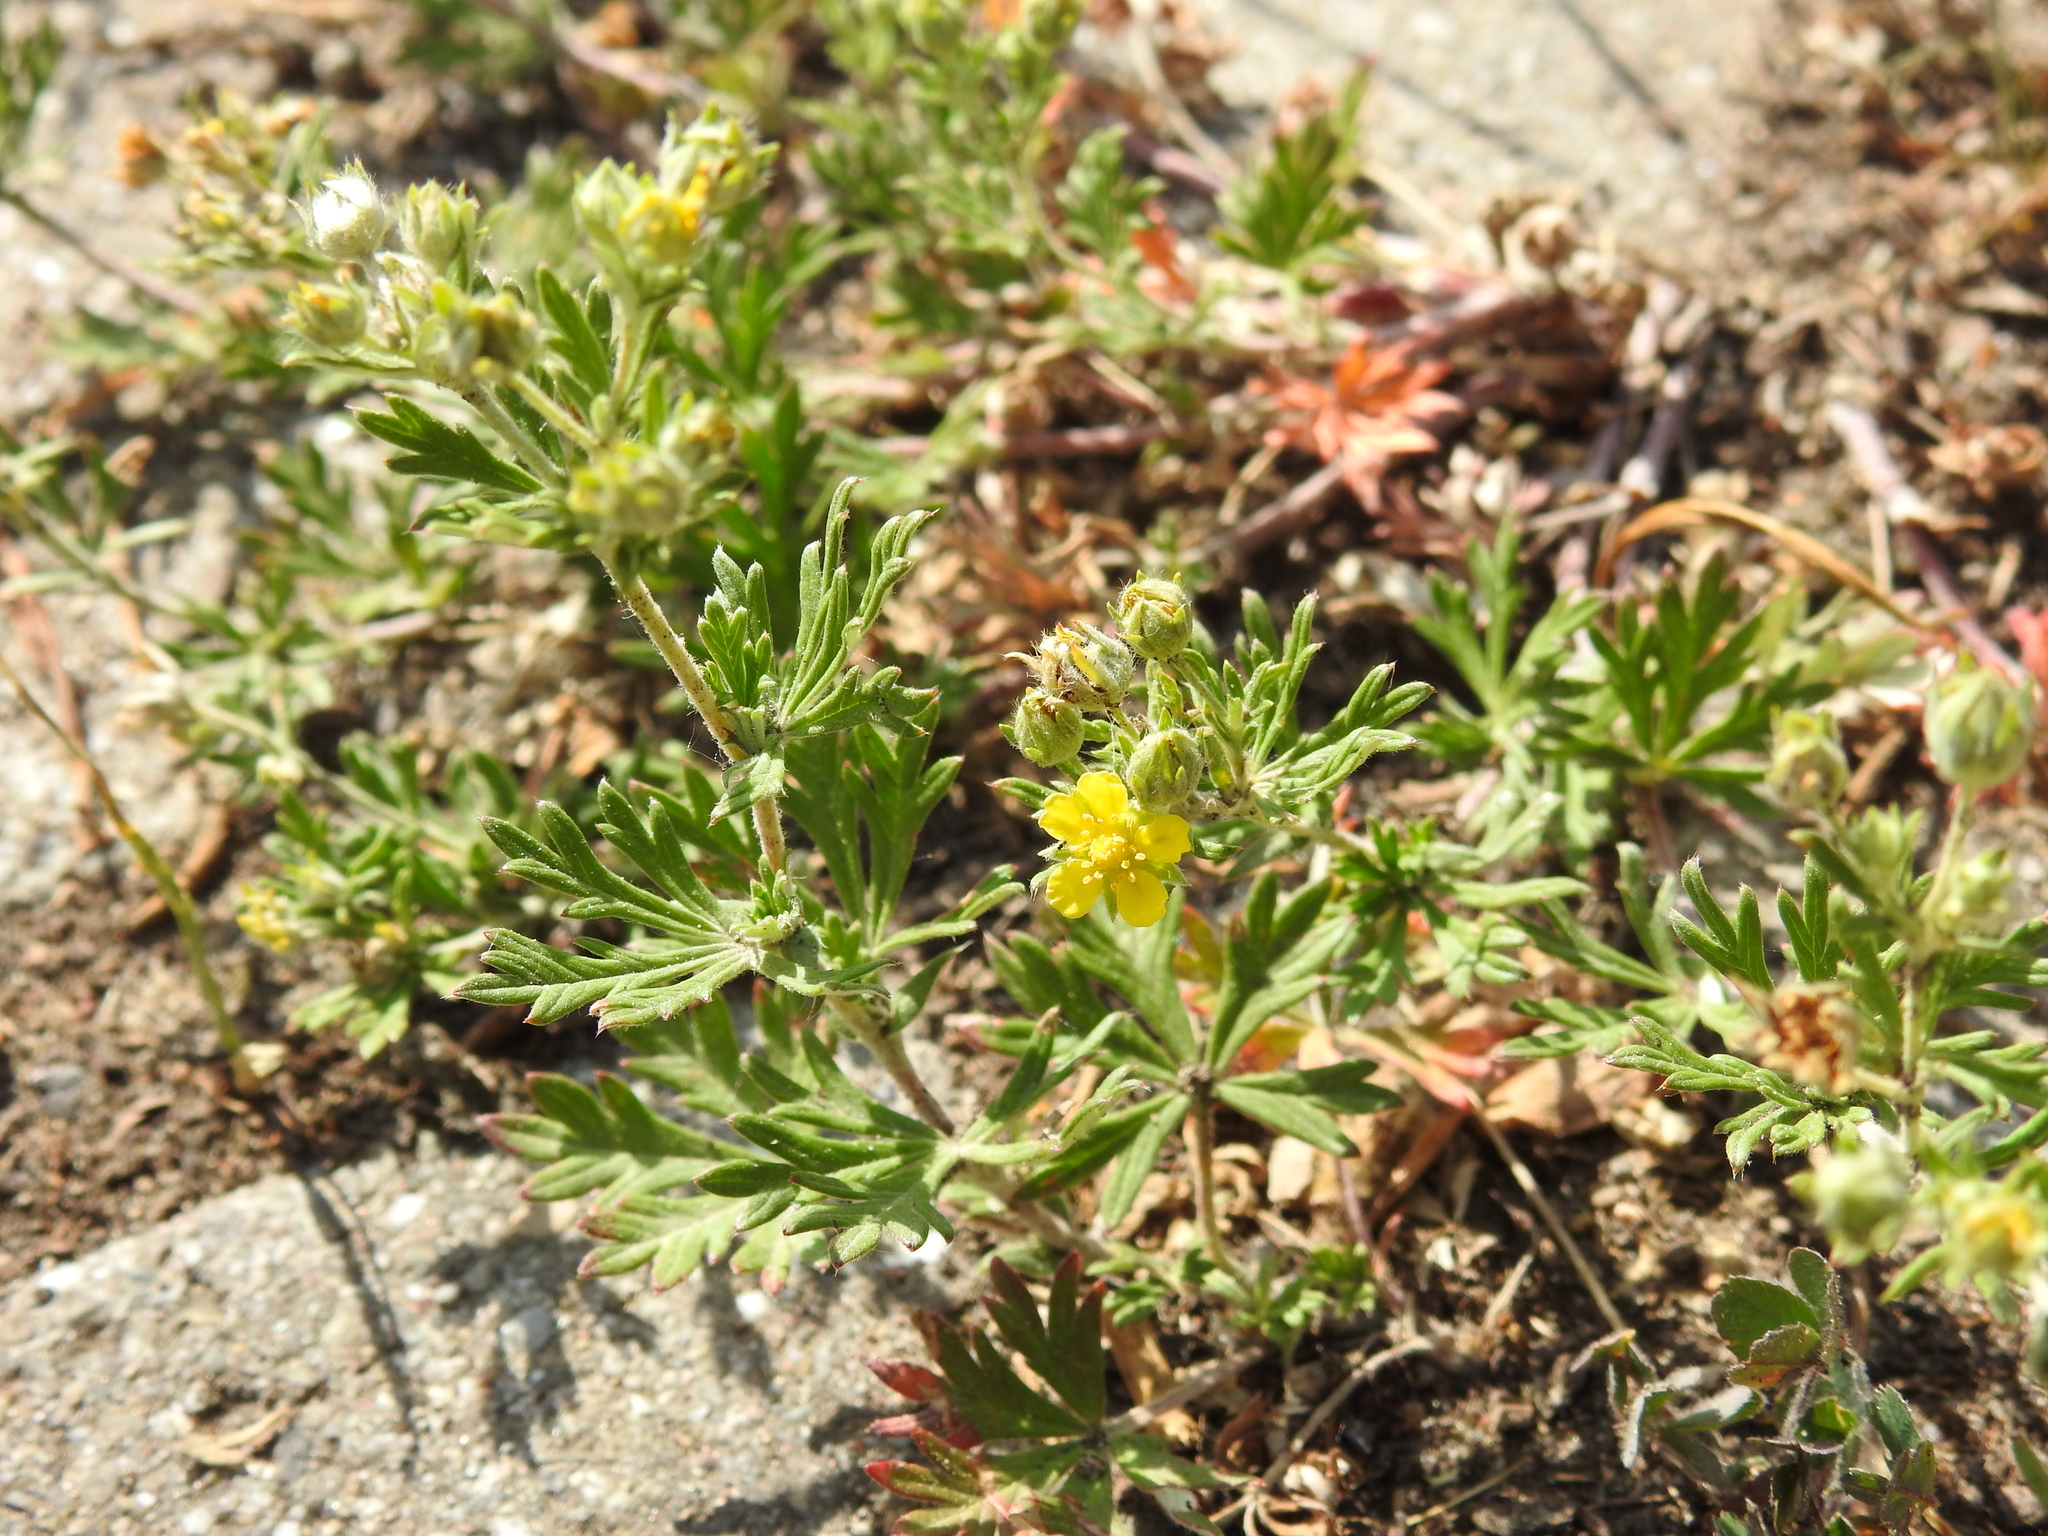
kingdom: Plantae
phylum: Tracheophyta
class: Magnoliopsida
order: Rosales
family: Rosaceae
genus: Potentilla
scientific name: Potentilla argentea
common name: Hoary cinquefoil
